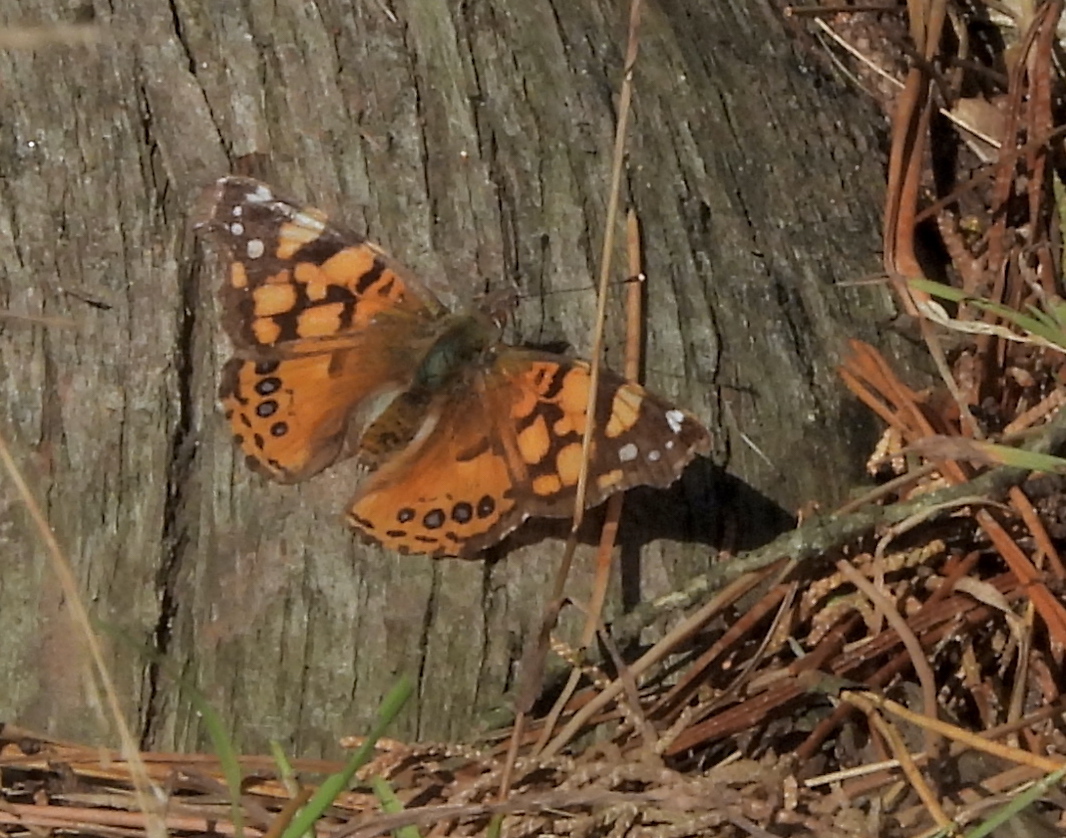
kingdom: Animalia
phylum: Arthropoda
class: Insecta
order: Lepidoptera
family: Nymphalidae
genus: Vanessa
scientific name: Vanessa annabella
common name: West coast lady
